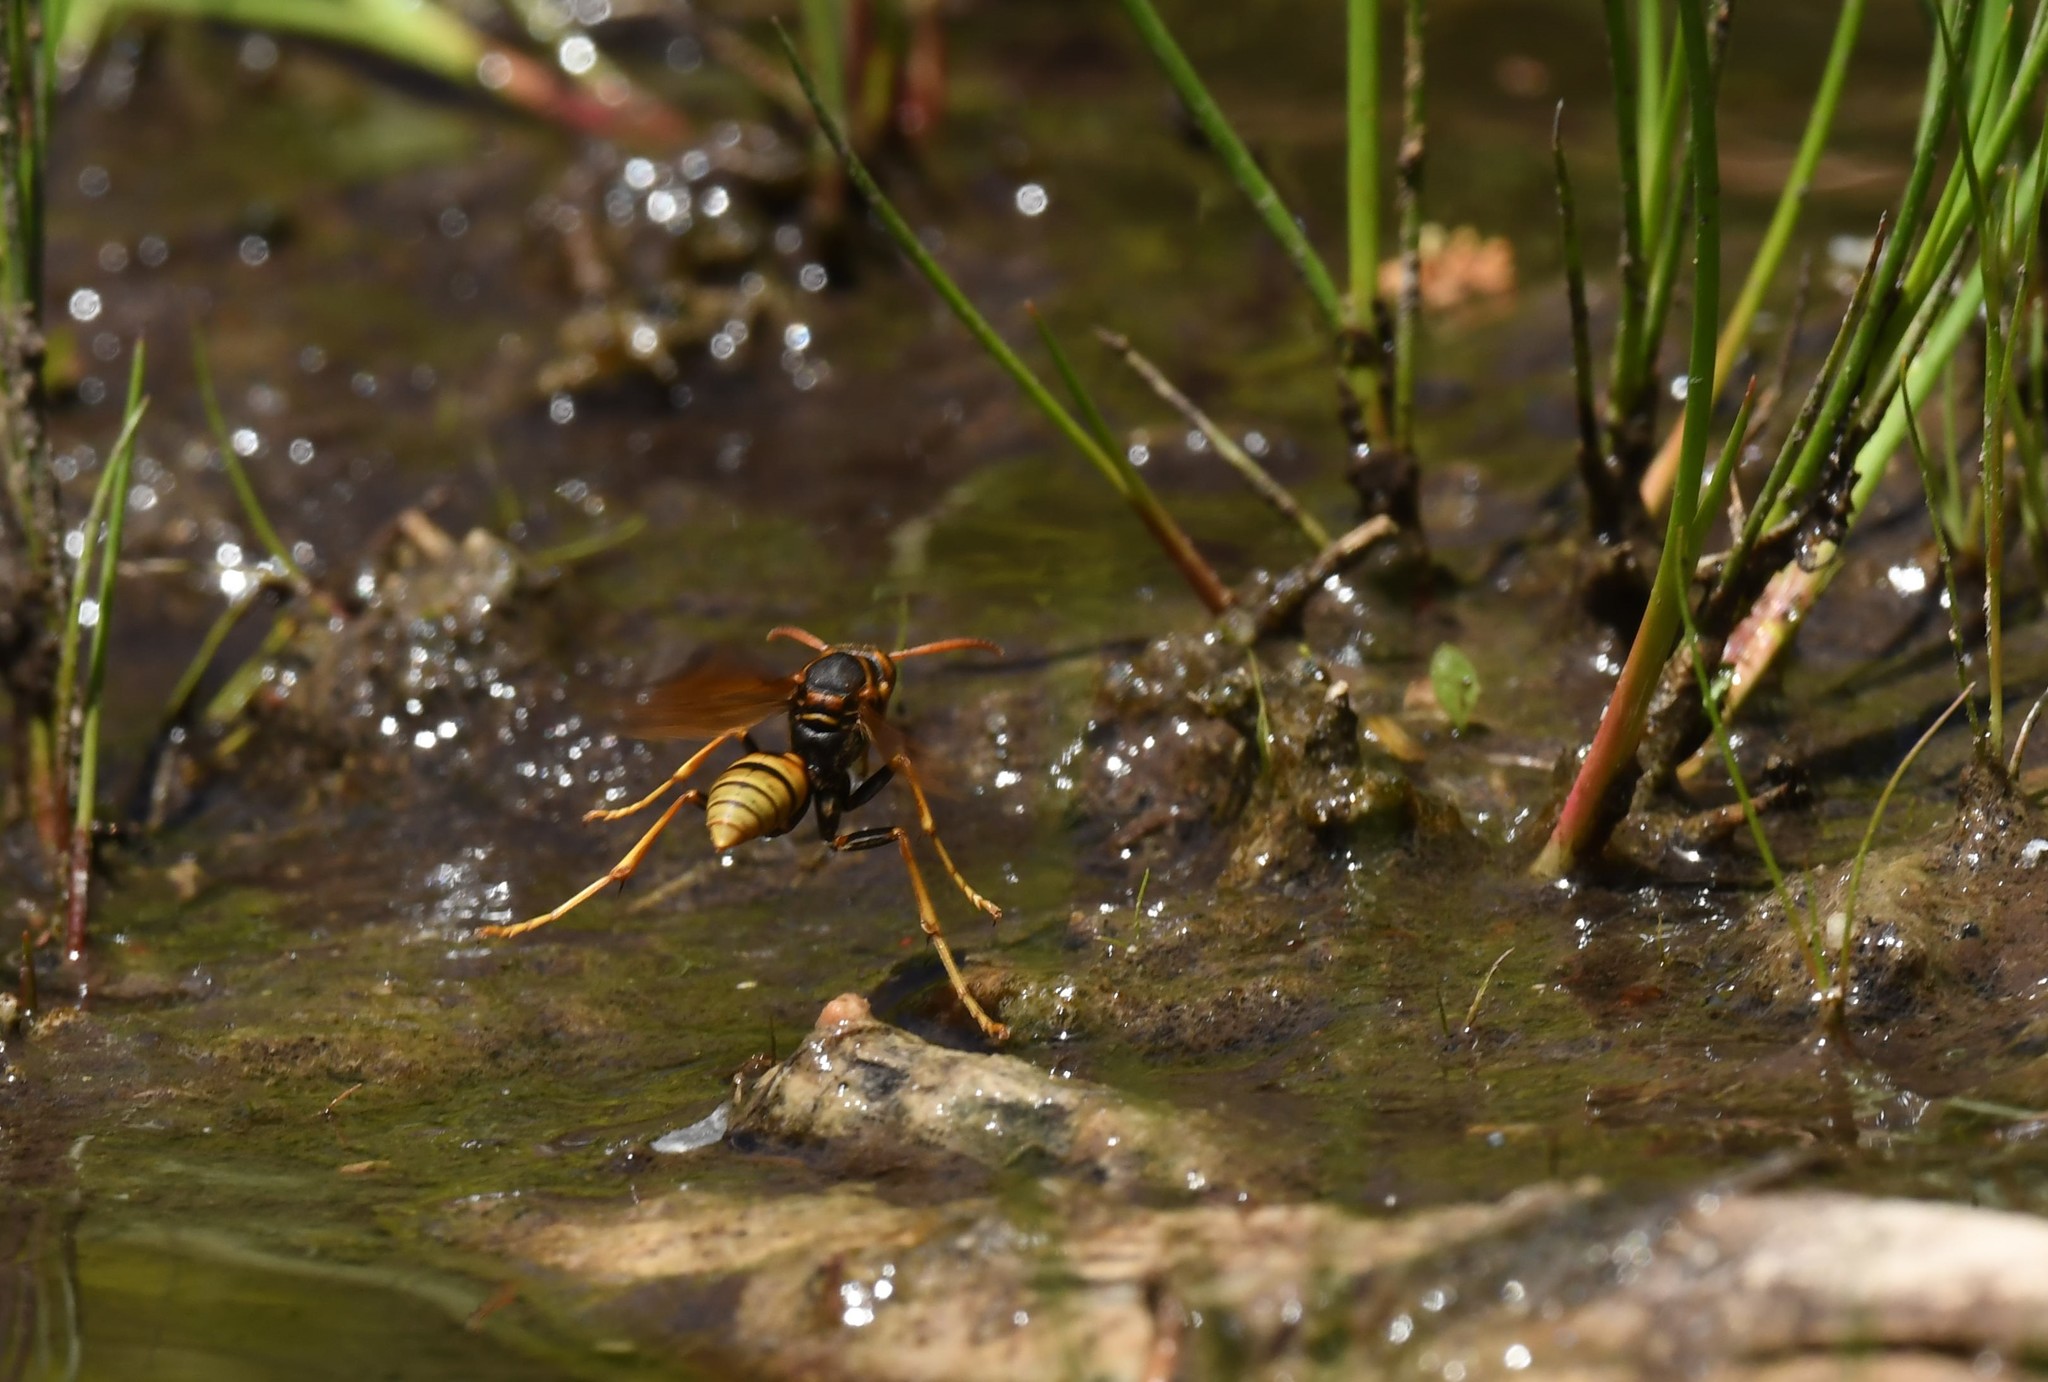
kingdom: Animalia
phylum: Arthropoda
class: Insecta
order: Hymenoptera
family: Eumenidae
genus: Polistes
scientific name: Polistes aurifer
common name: Paper wasp
